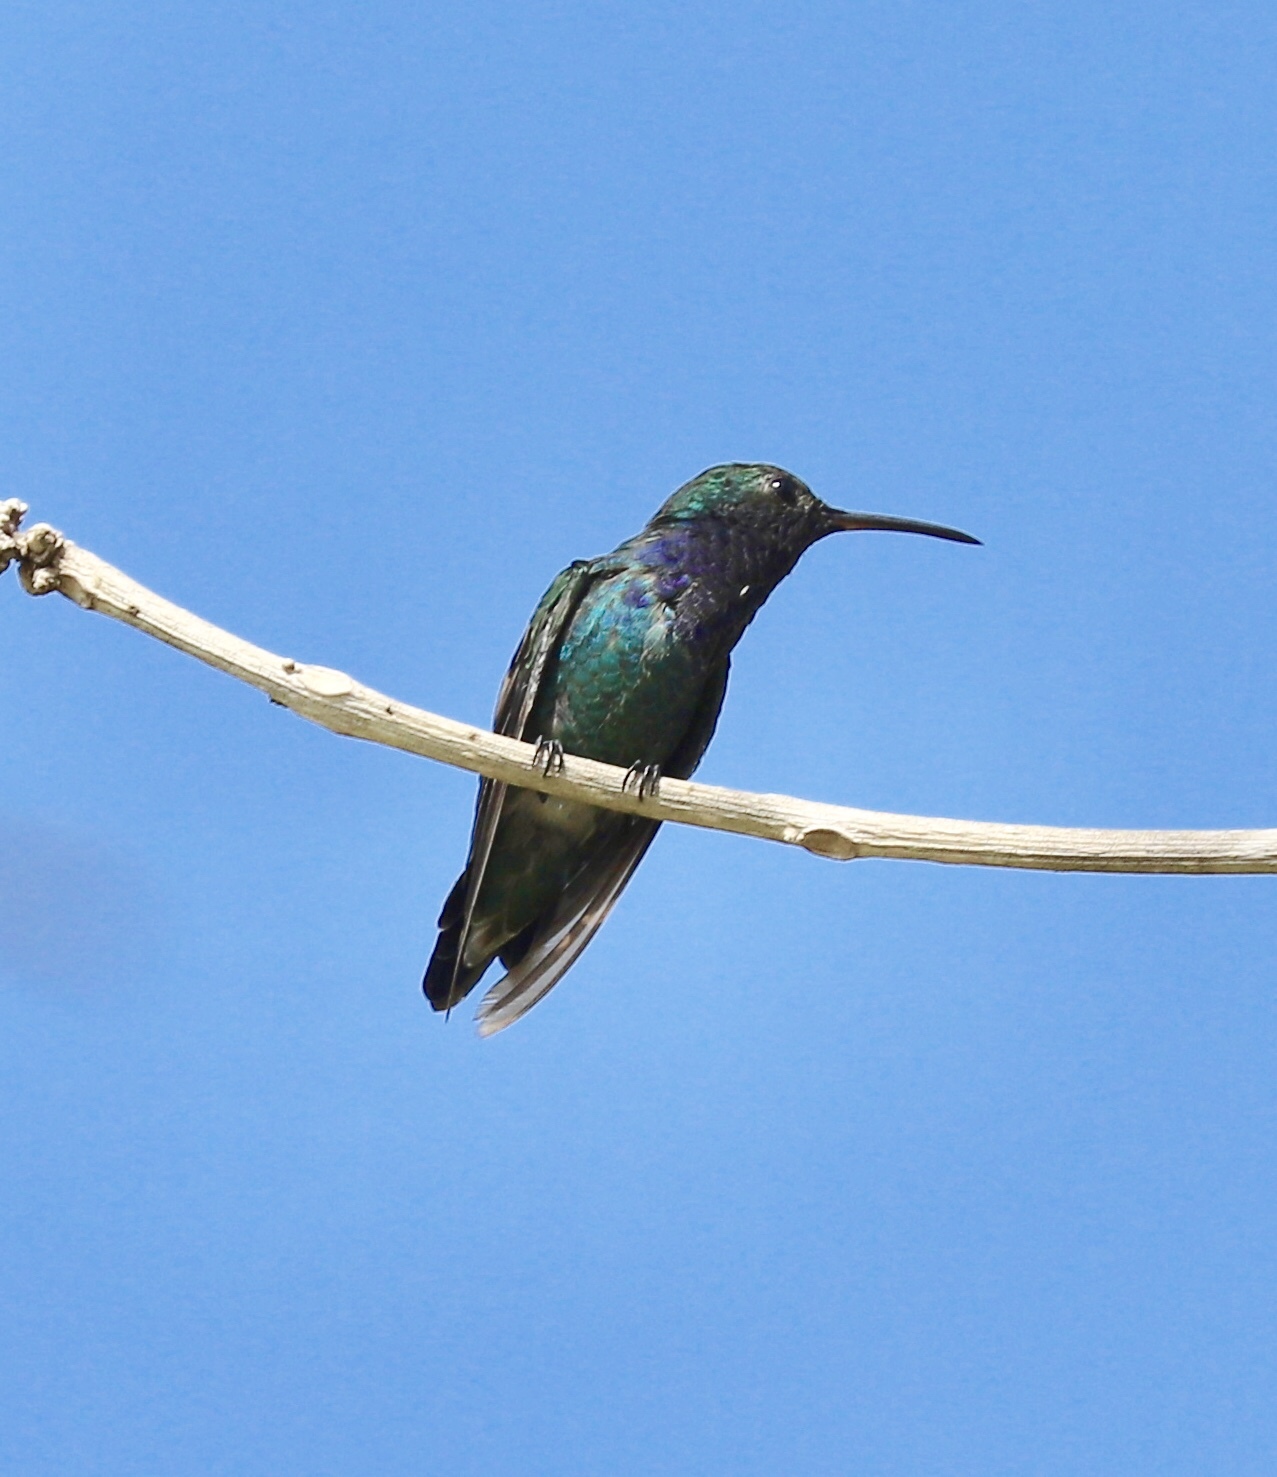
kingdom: Animalia
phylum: Chordata
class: Aves
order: Apodiformes
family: Trochilidae
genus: Chrysuronia
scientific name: Chrysuronia coeruleogularis
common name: Sapphire-throated hummingbird
